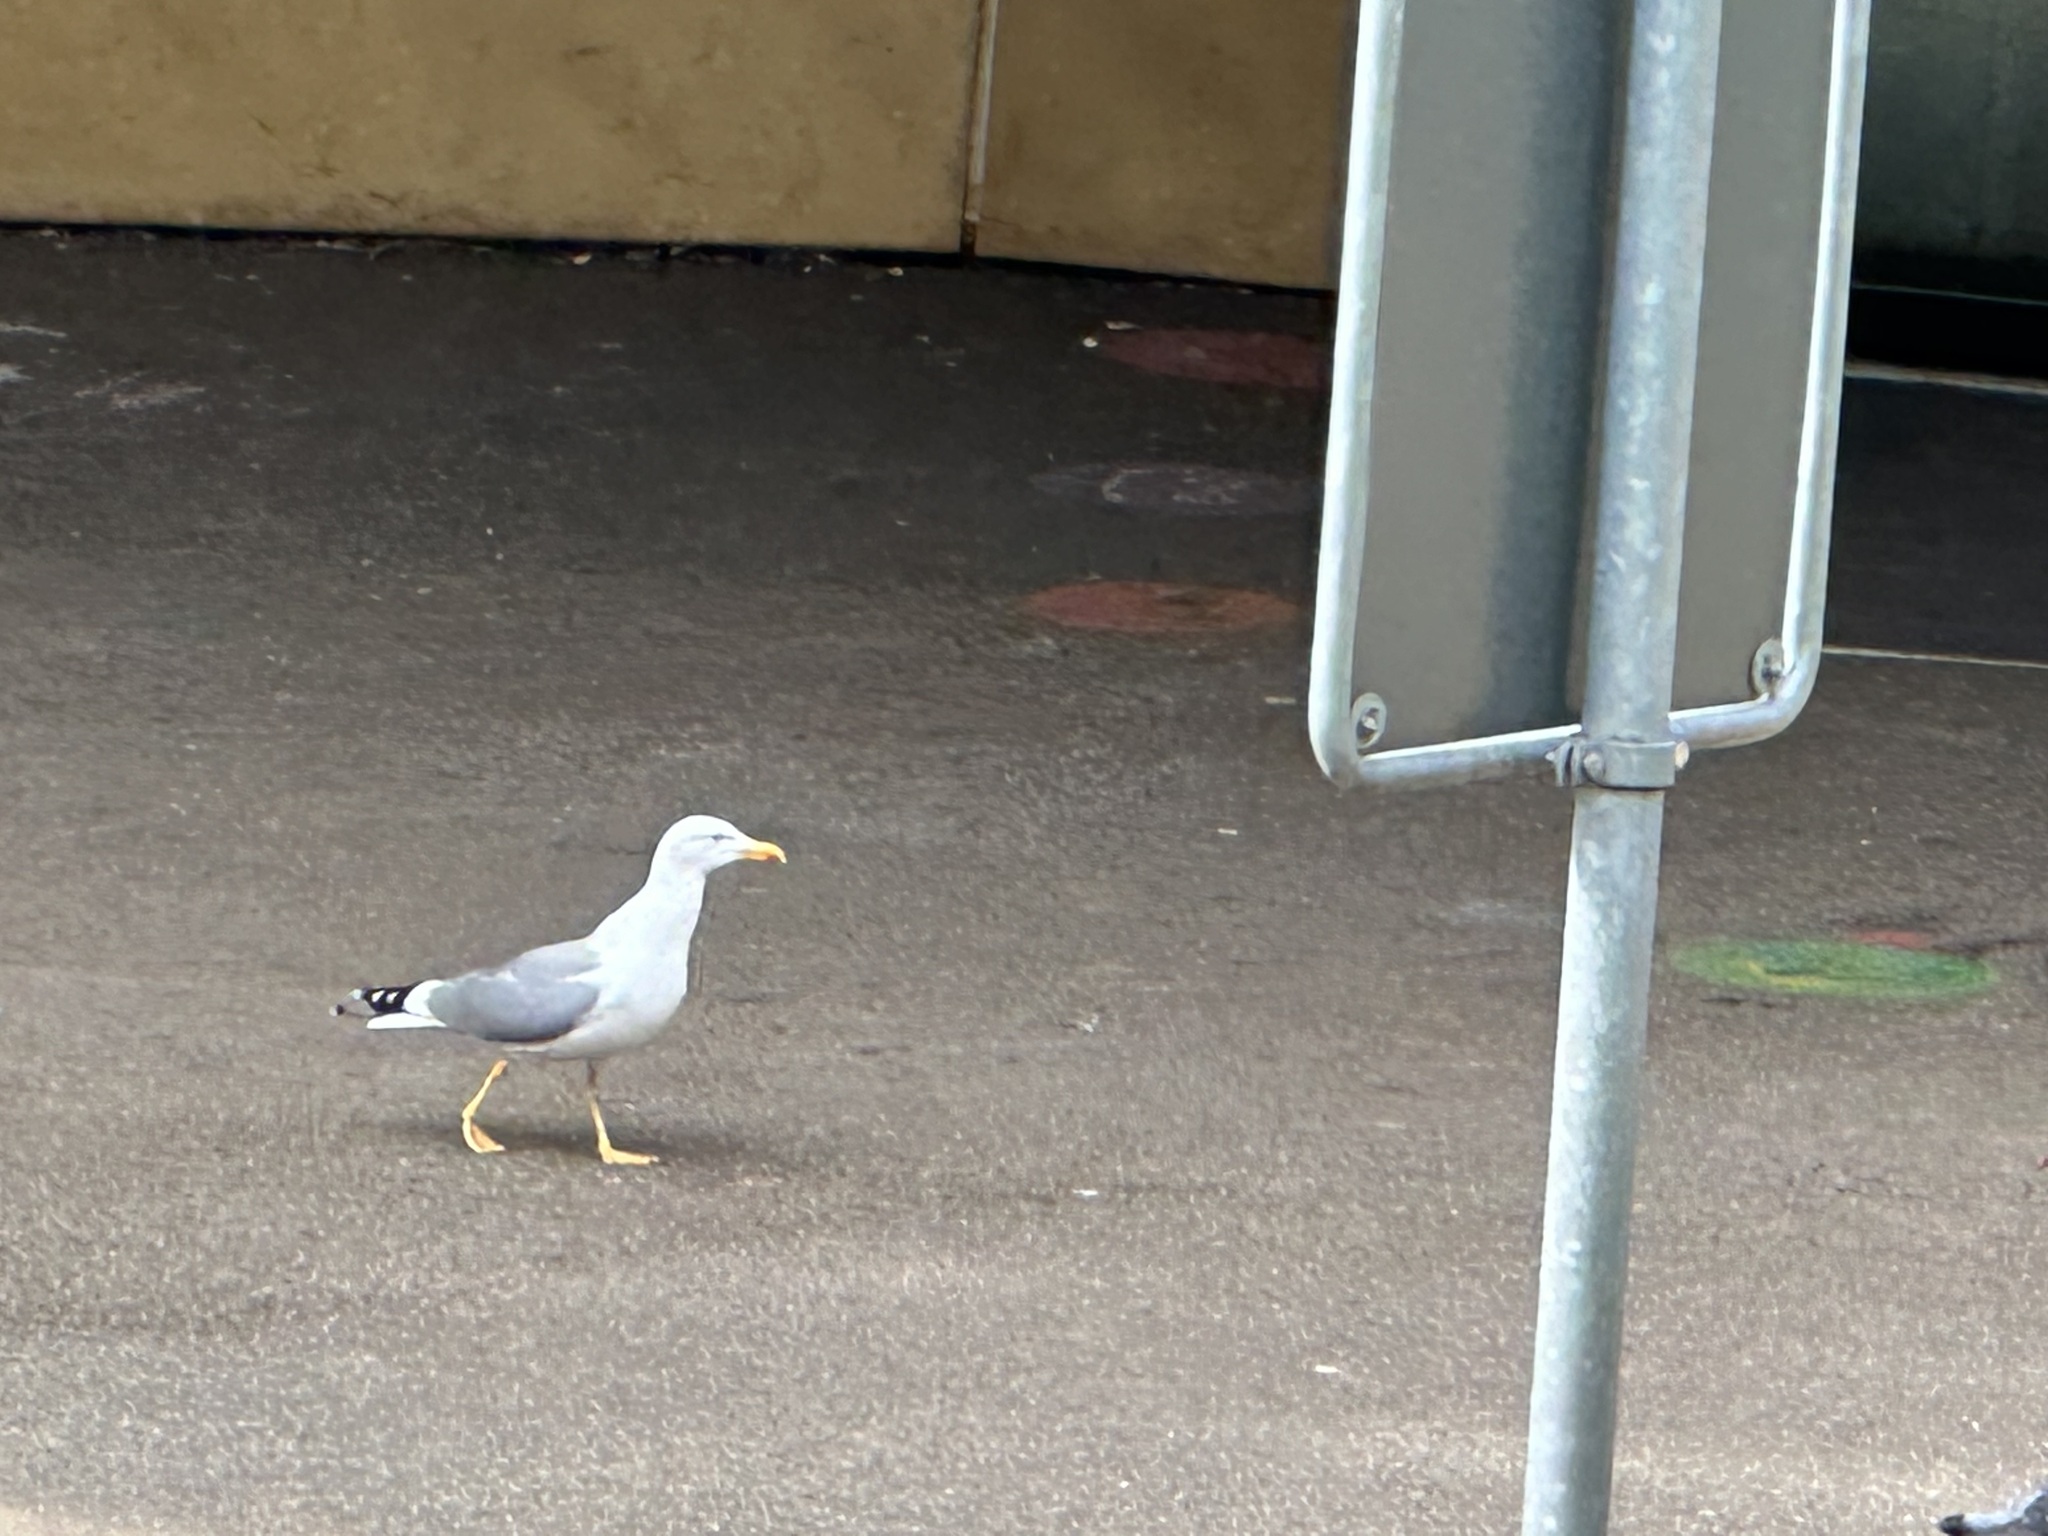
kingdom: Animalia
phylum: Chordata
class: Aves
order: Charadriiformes
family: Laridae
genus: Larus
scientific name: Larus michahellis
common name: Yellow-legged gull
